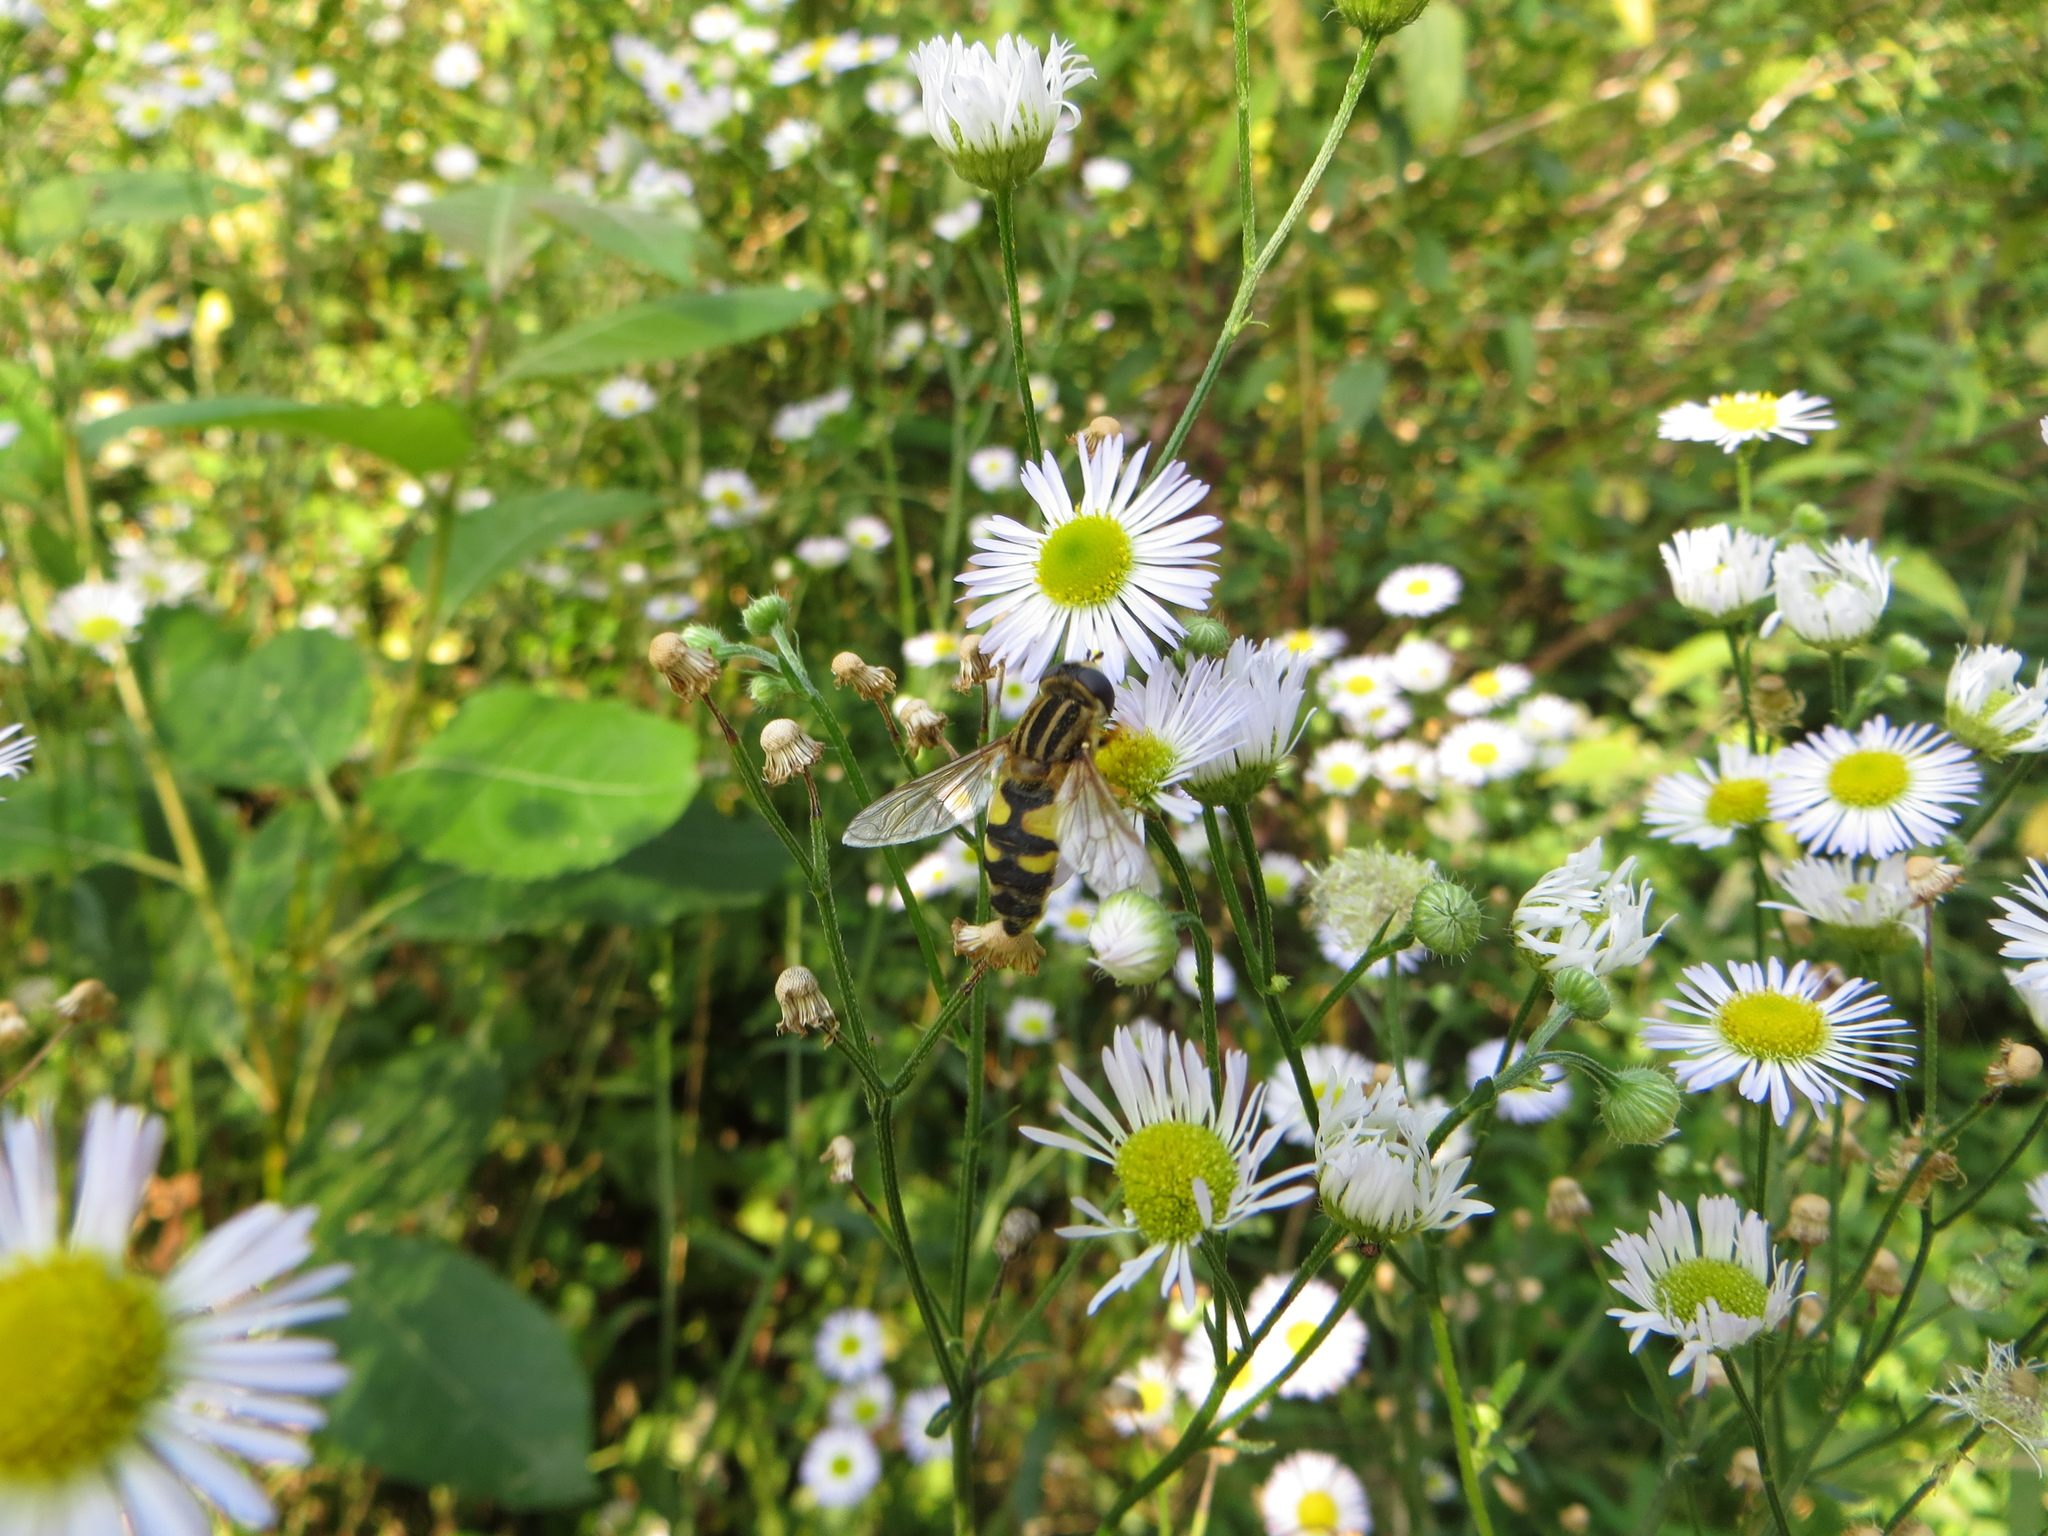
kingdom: Animalia
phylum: Arthropoda
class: Insecta
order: Diptera
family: Syrphidae
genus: Helophilus
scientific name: Helophilus trivittatus
